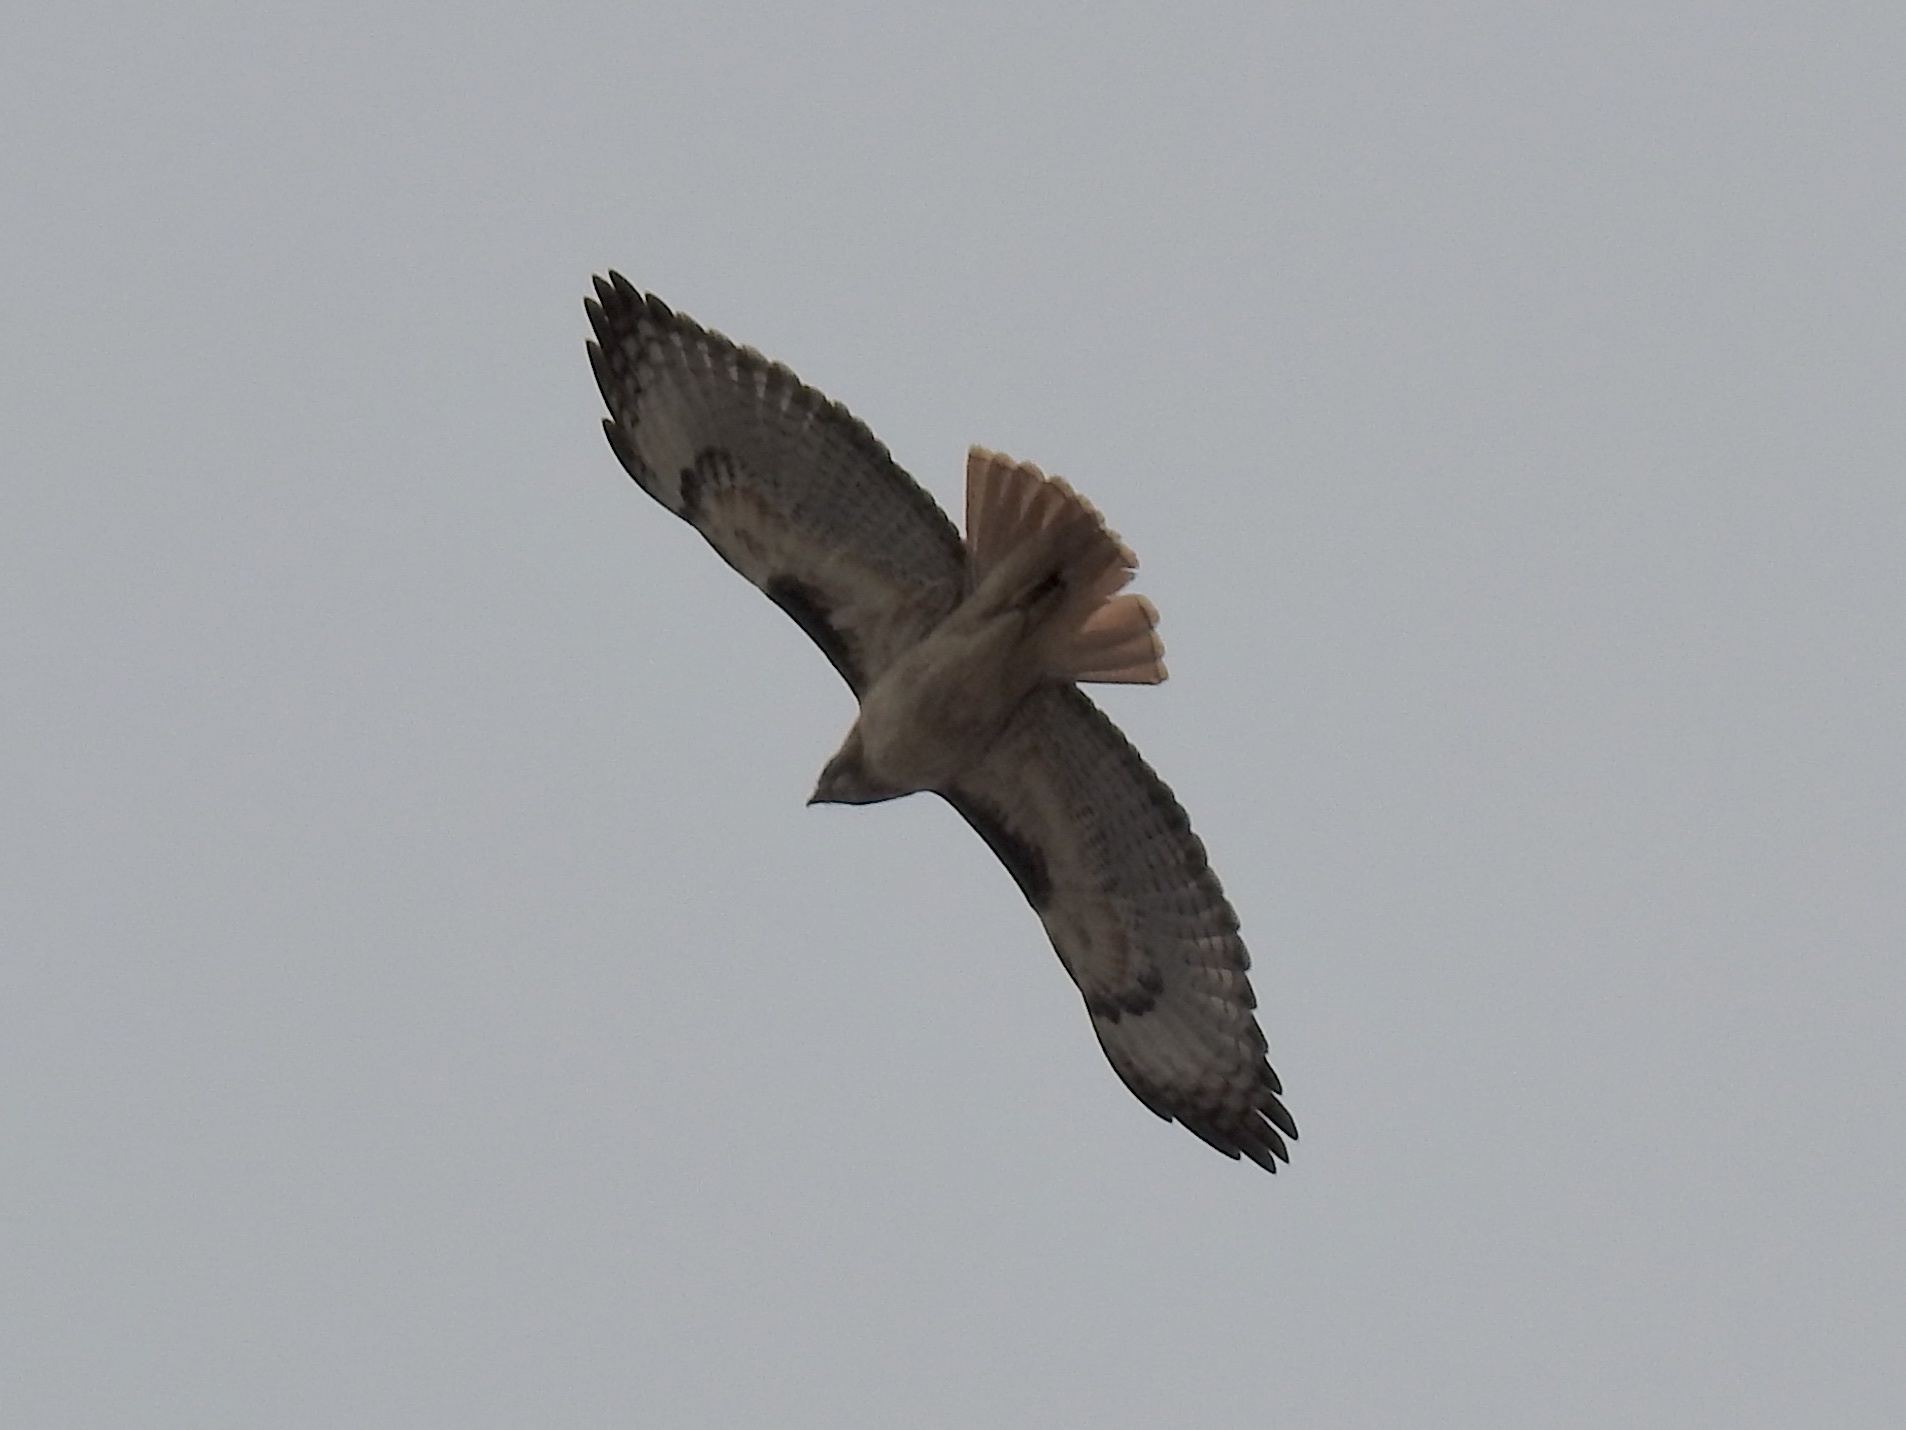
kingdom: Animalia
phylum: Chordata
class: Aves
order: Accipitriformes
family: Accipitridae
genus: Buteo
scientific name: Buteo jamaicensis
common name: Red-tailed hawk
